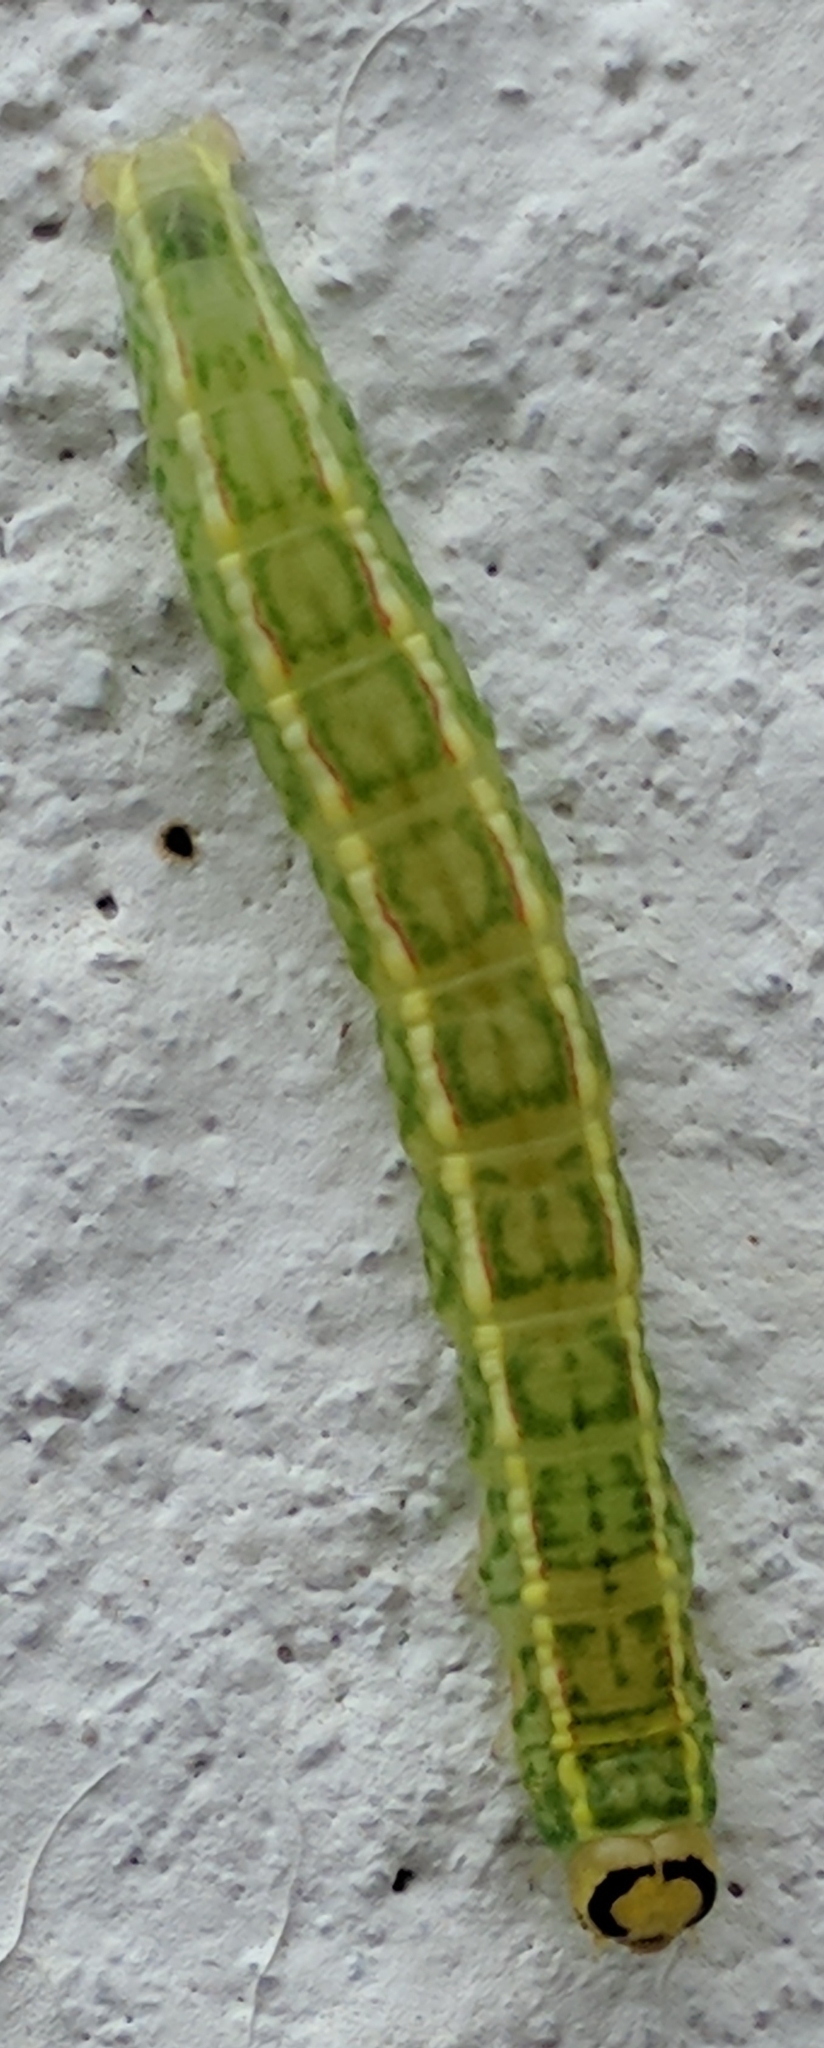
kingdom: Animalia
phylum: Arthropoda
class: Insecta
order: Lepidoptera
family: Notodontidae
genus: Gluphisia
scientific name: Gluphisia septentrionis
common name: Common gluphisia
